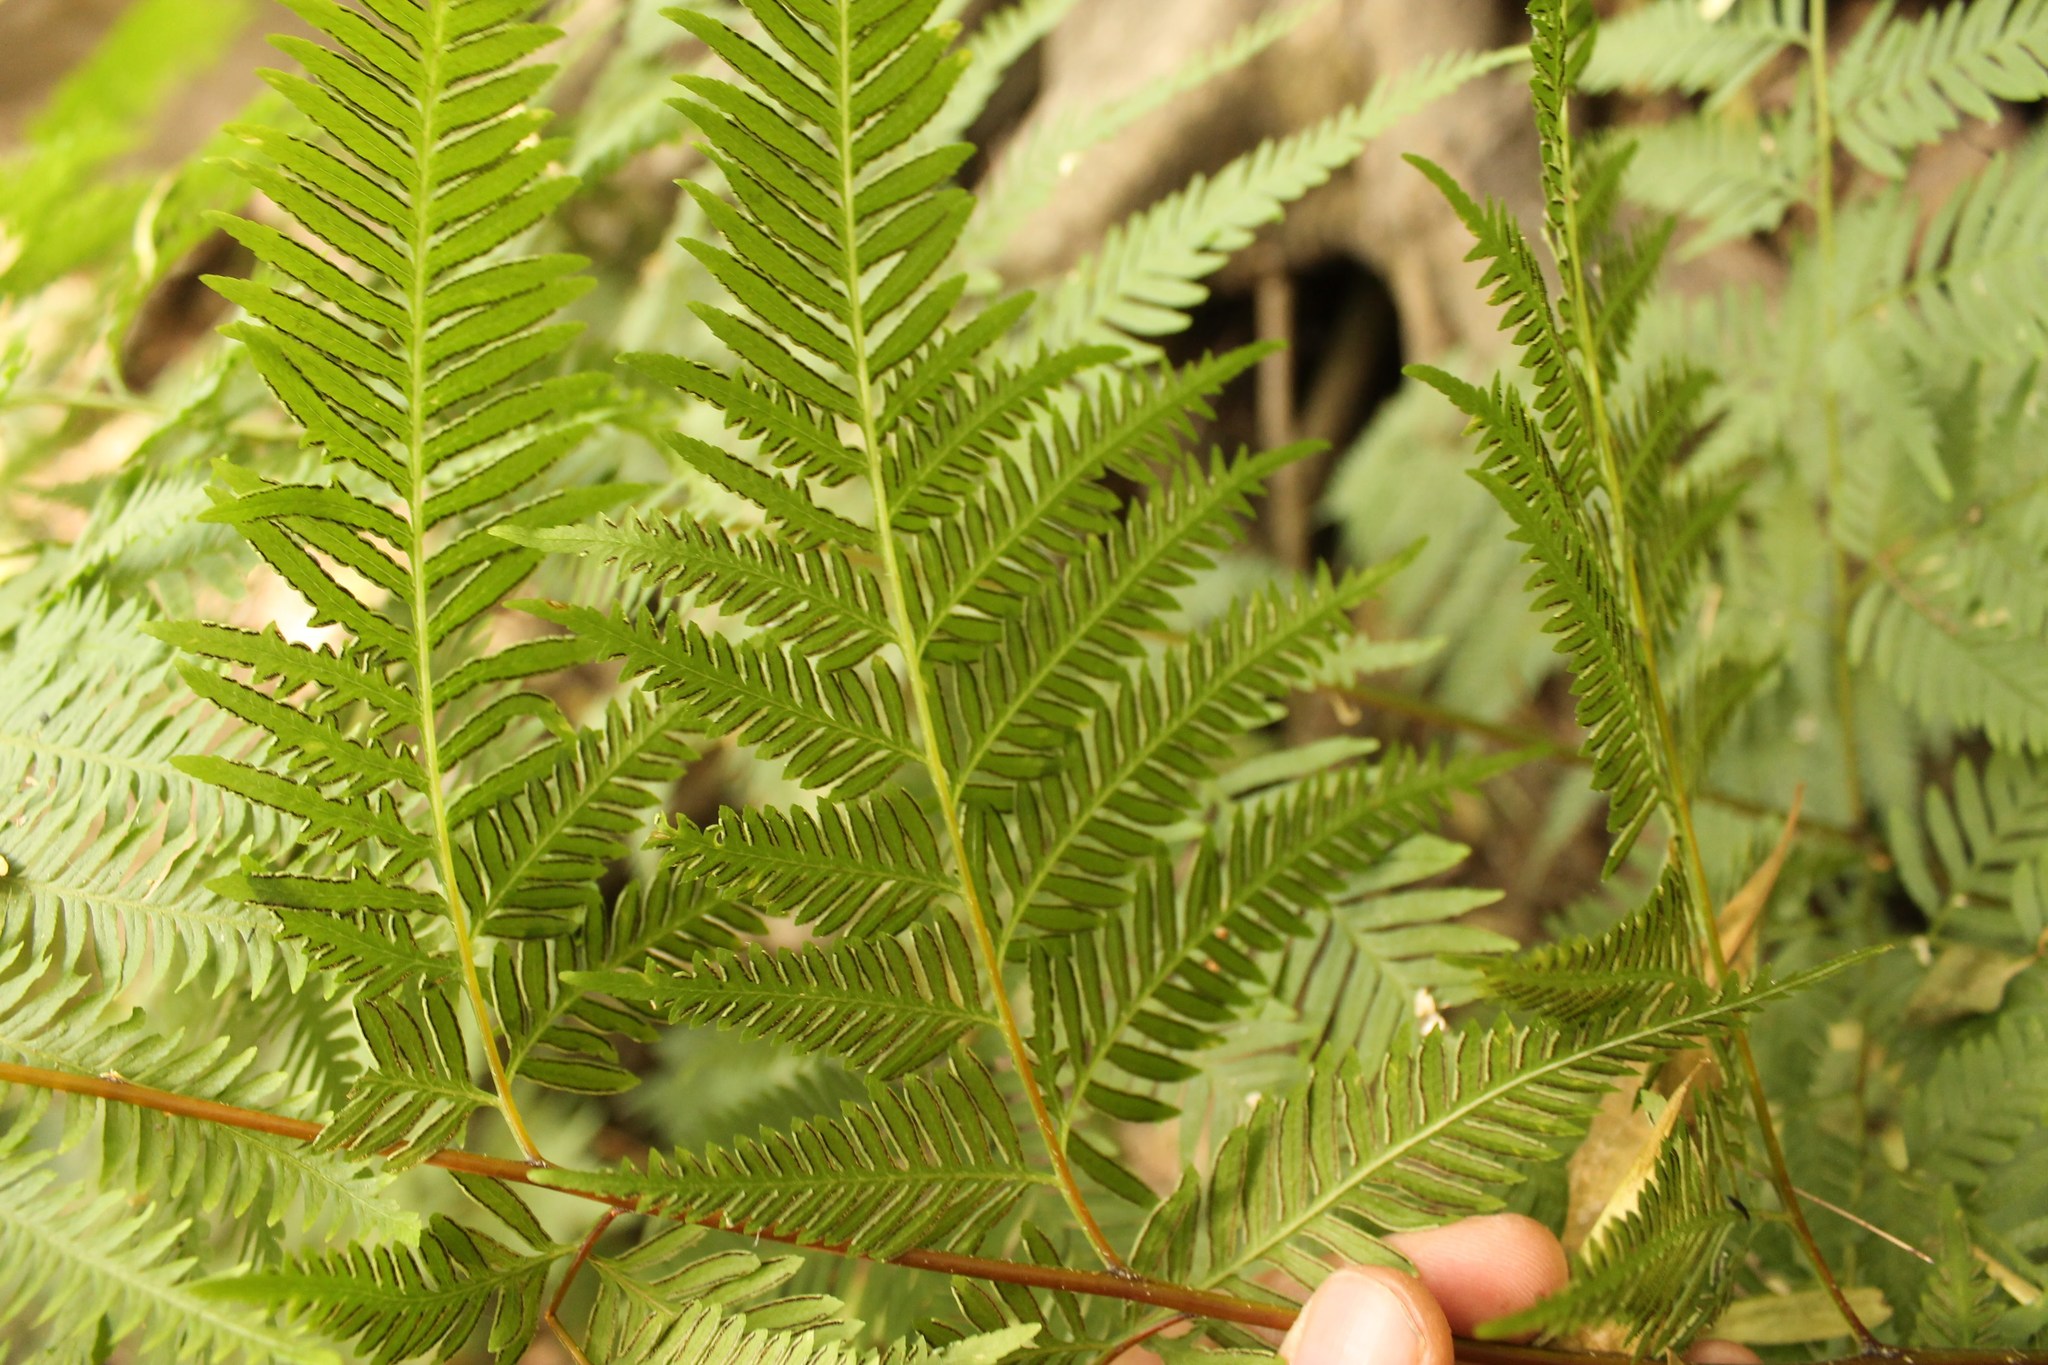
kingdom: Plantae
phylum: Tracheophyta
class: Polypodiopsida
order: Polypodiales
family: Dennstaedtiaceae
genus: Pteridium
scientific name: Pteridium aquilinum
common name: Bracken
